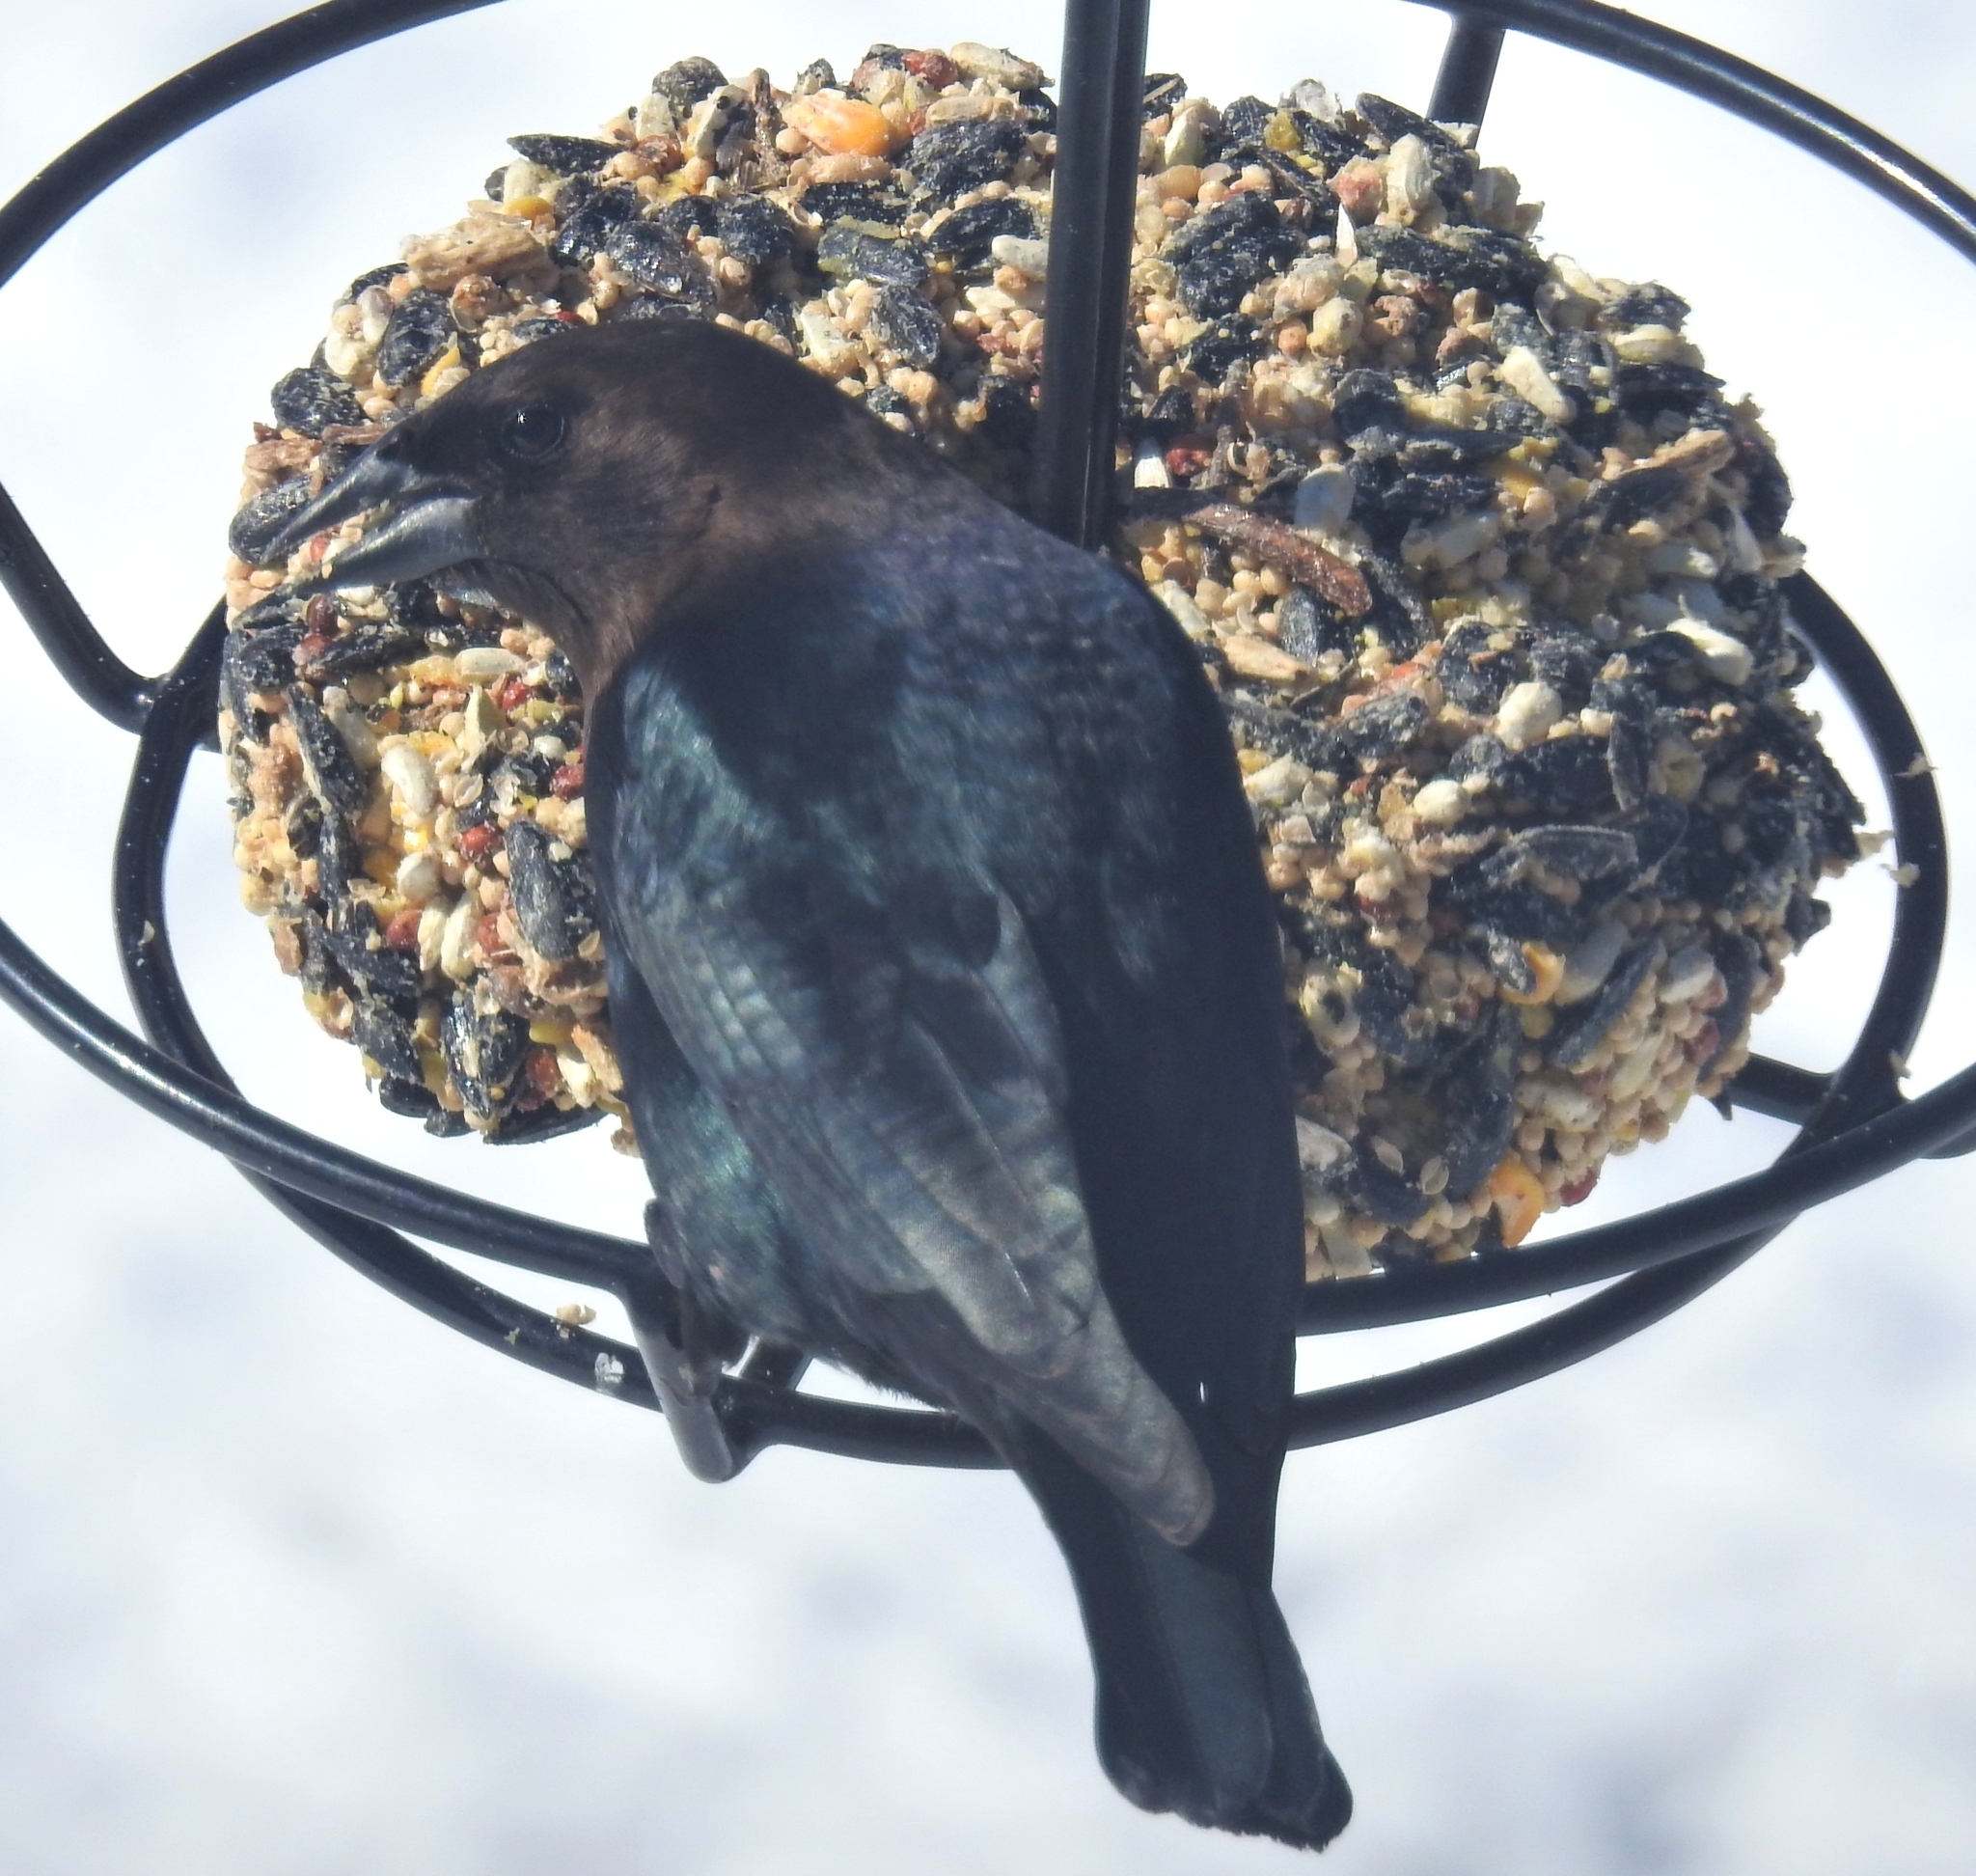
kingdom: Animalia
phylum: Chordata
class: Aves
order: Passeriformes
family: Icteridae
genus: Molothrus
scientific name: Molothrus ater
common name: Brown-headed cowbird
